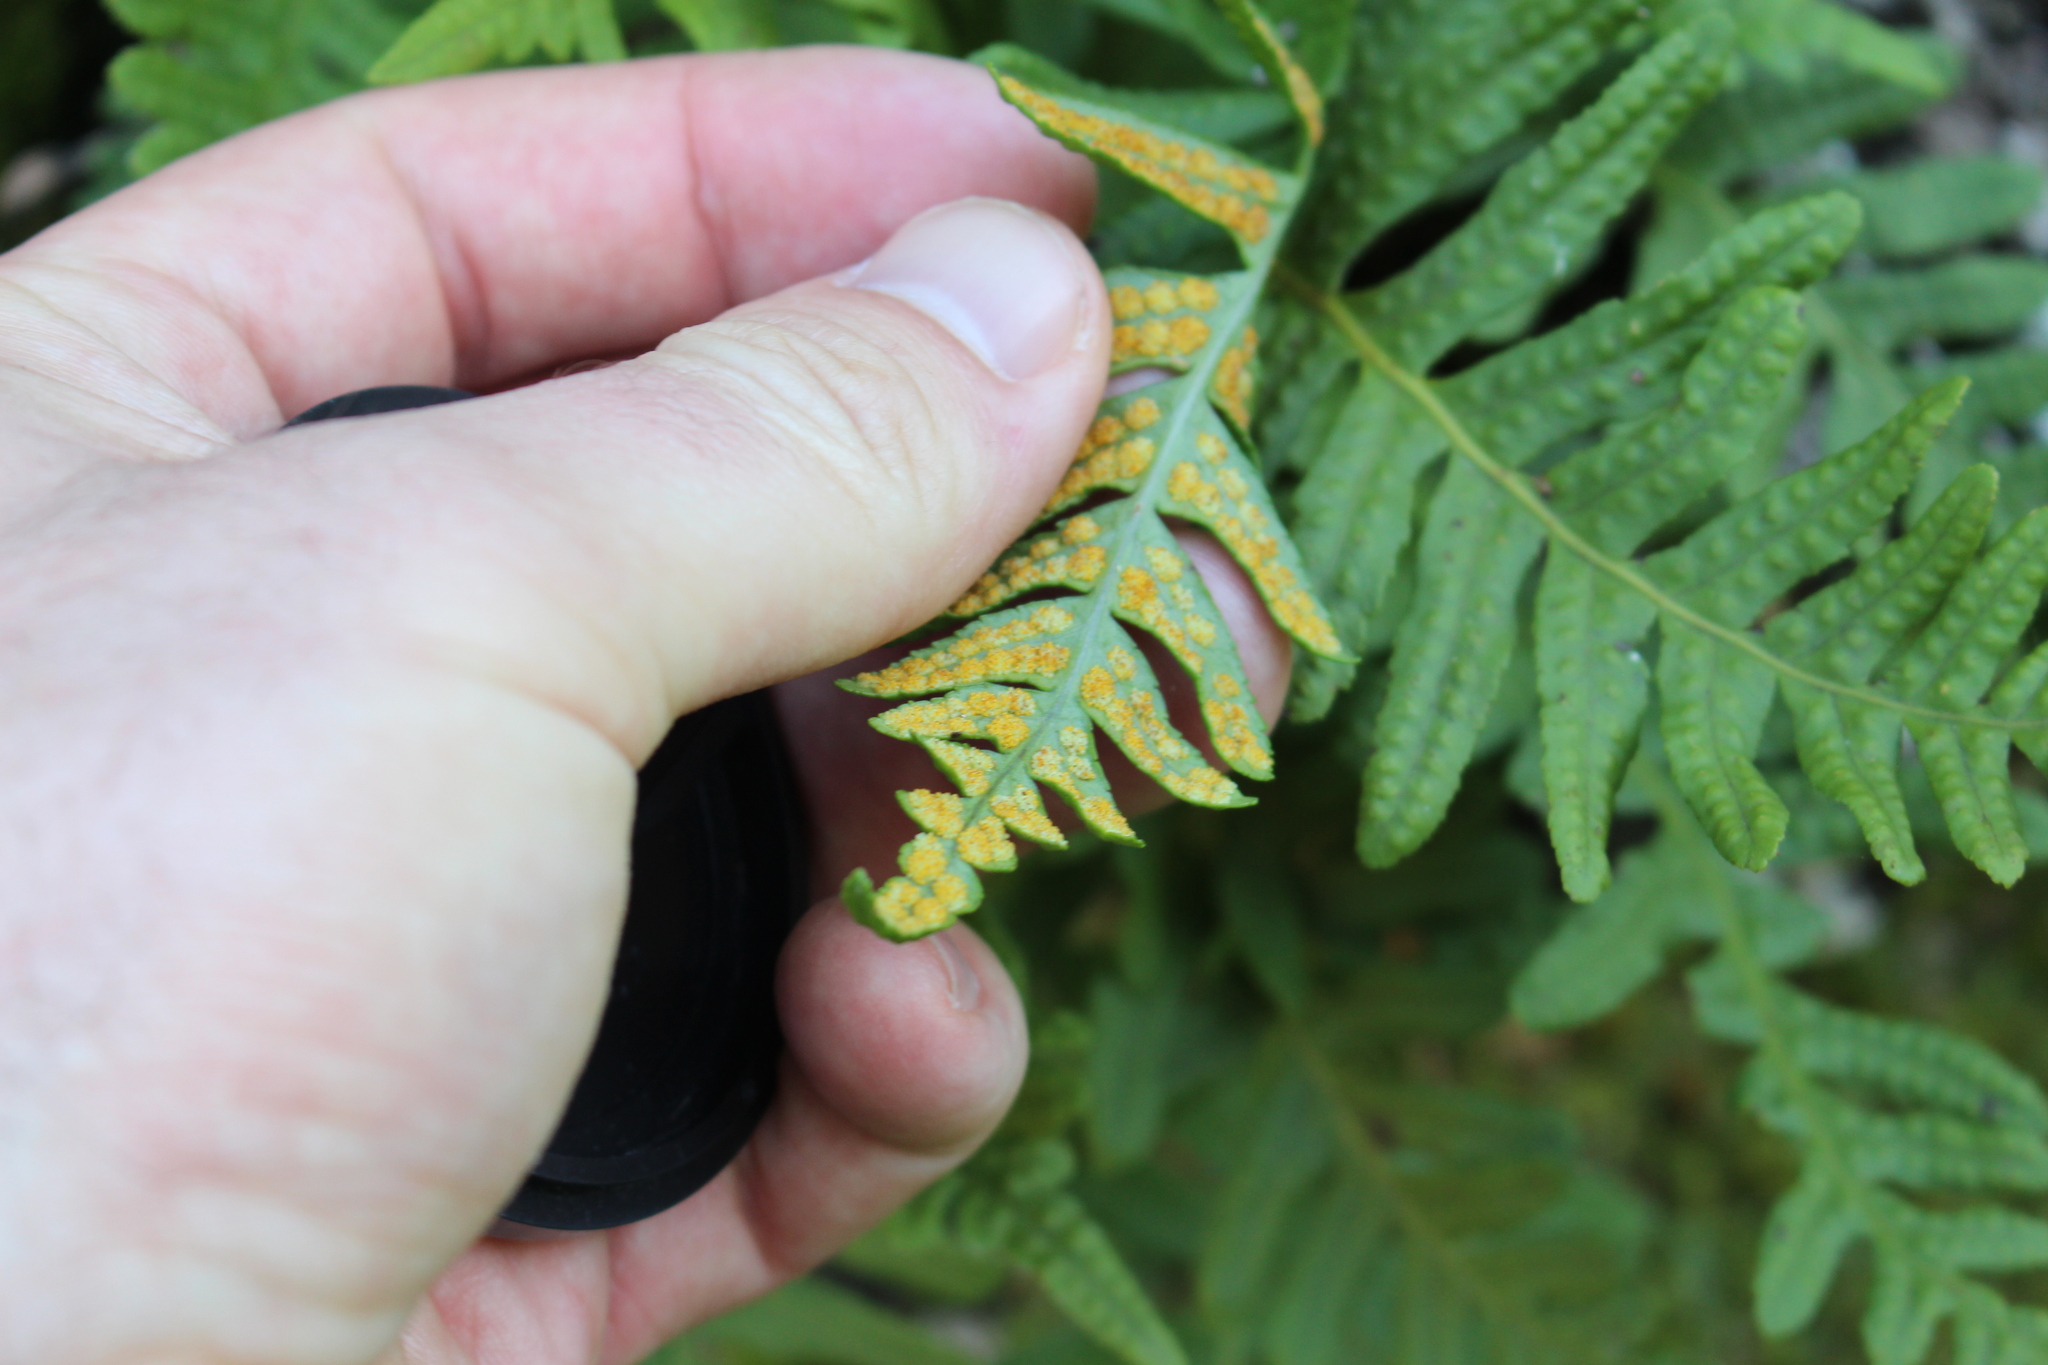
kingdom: Plantae
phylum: Tracheophyta
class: Polypodiopsida
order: Polypodiales
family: Polypodiaceae
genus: Polypodium
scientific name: Polypodium vulgare
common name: Common polypody
